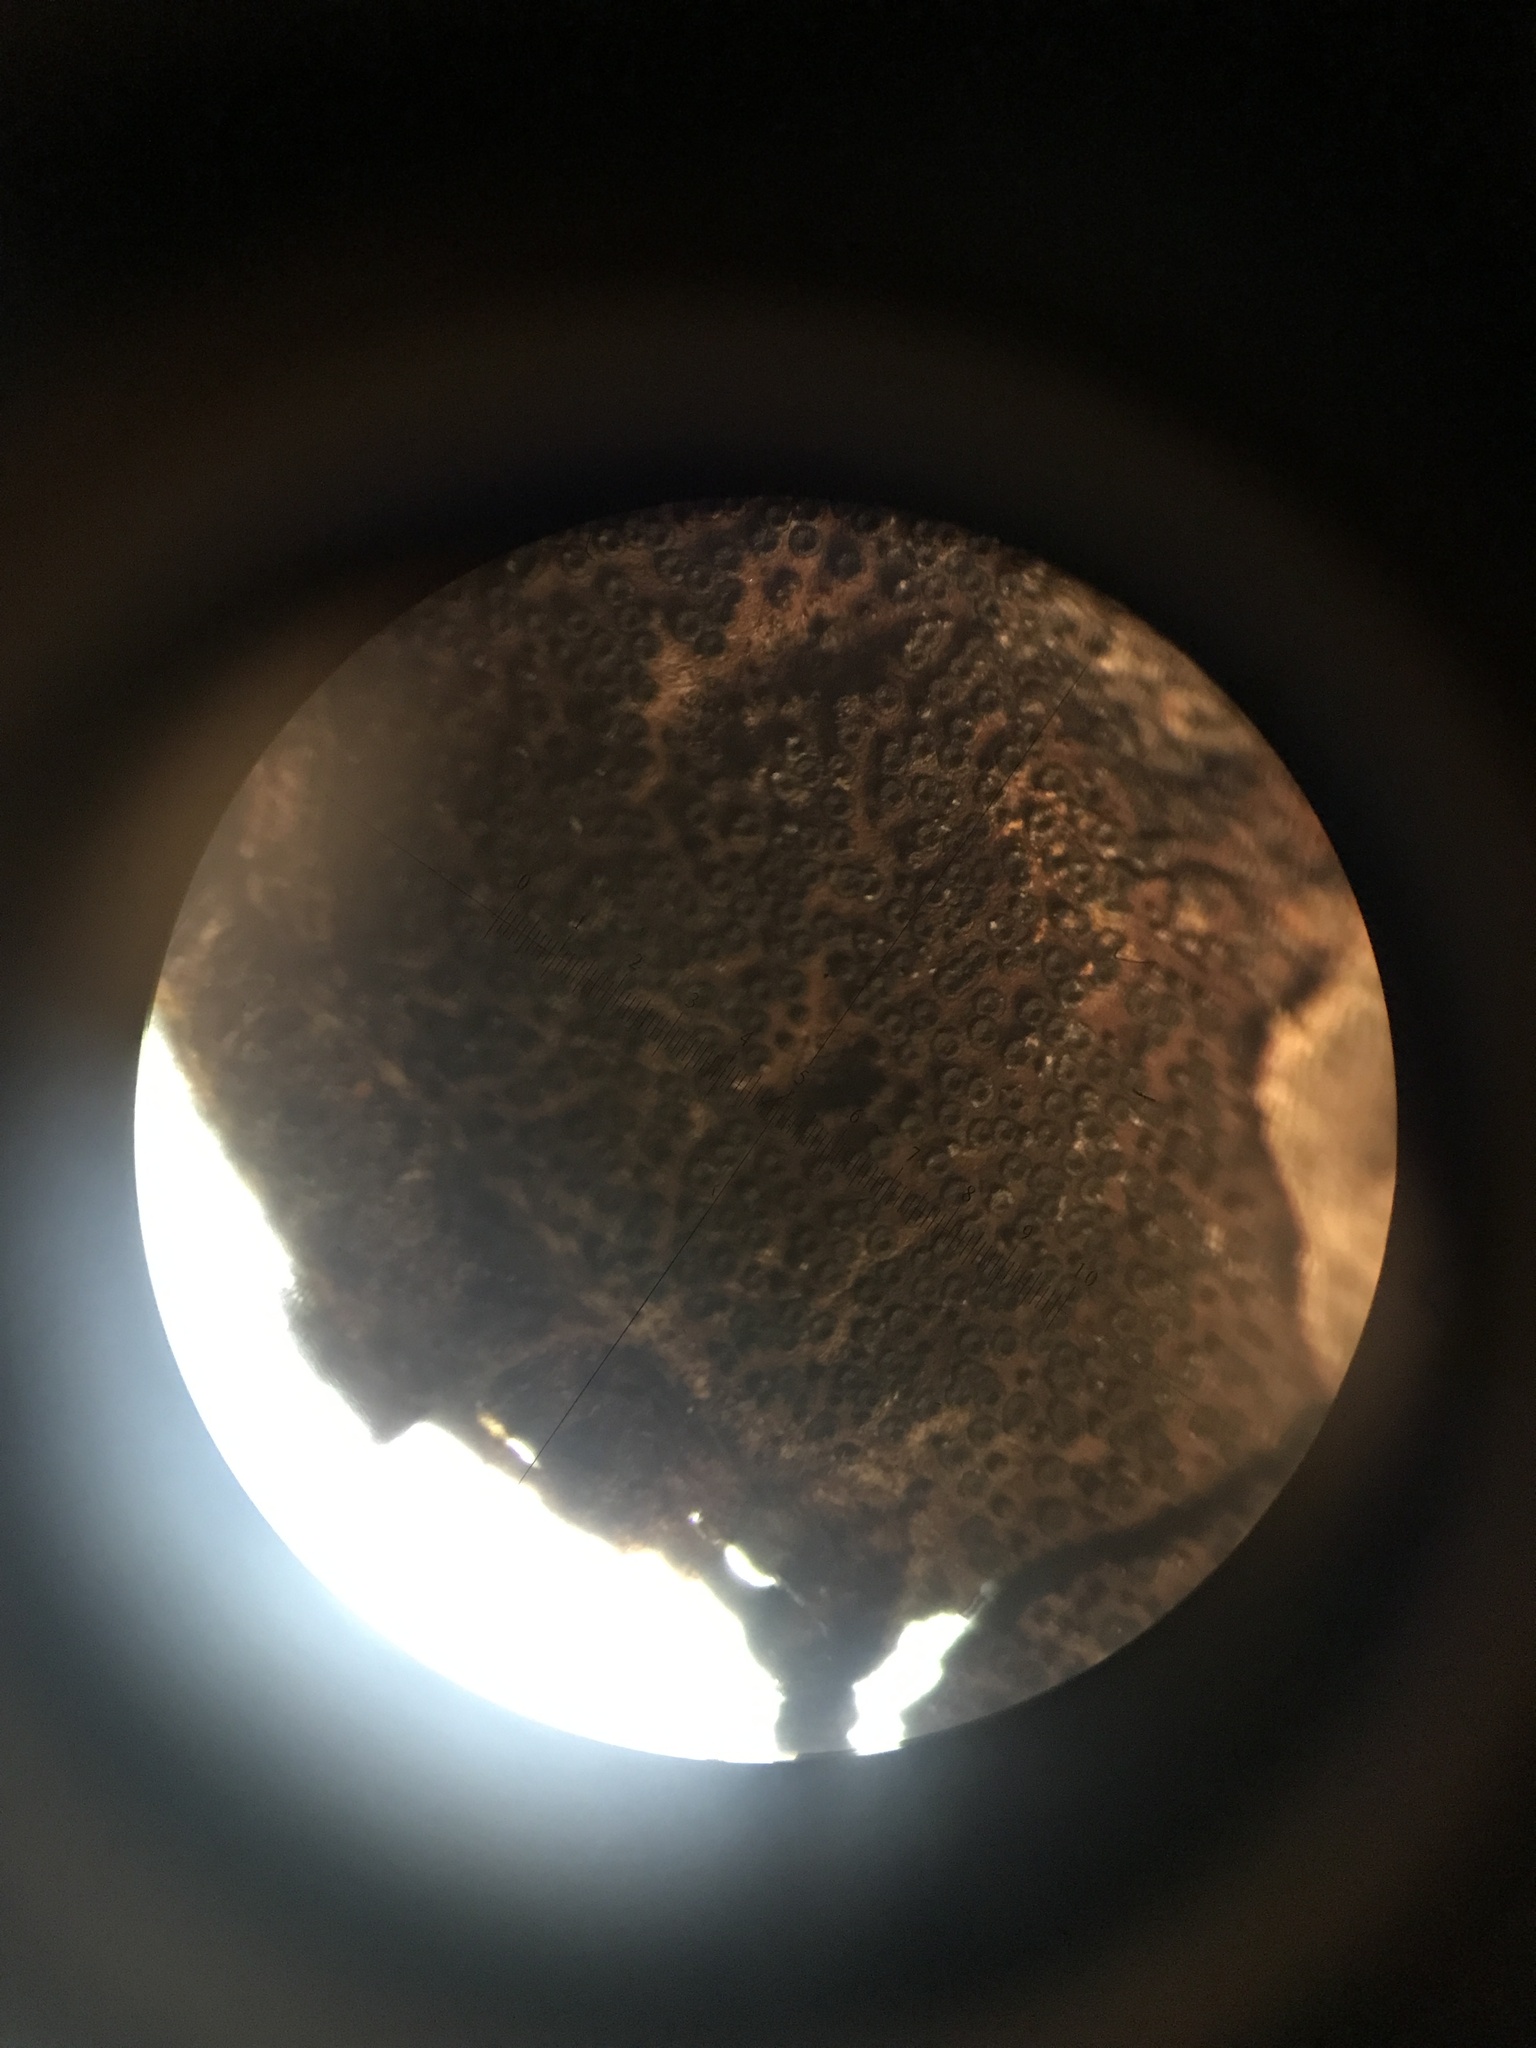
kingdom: Fungi
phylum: Ascomycota
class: Sordariomycetes
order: Xylariales
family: Graphostromataceae
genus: Graphostroma
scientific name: Graphostroma platystomum
